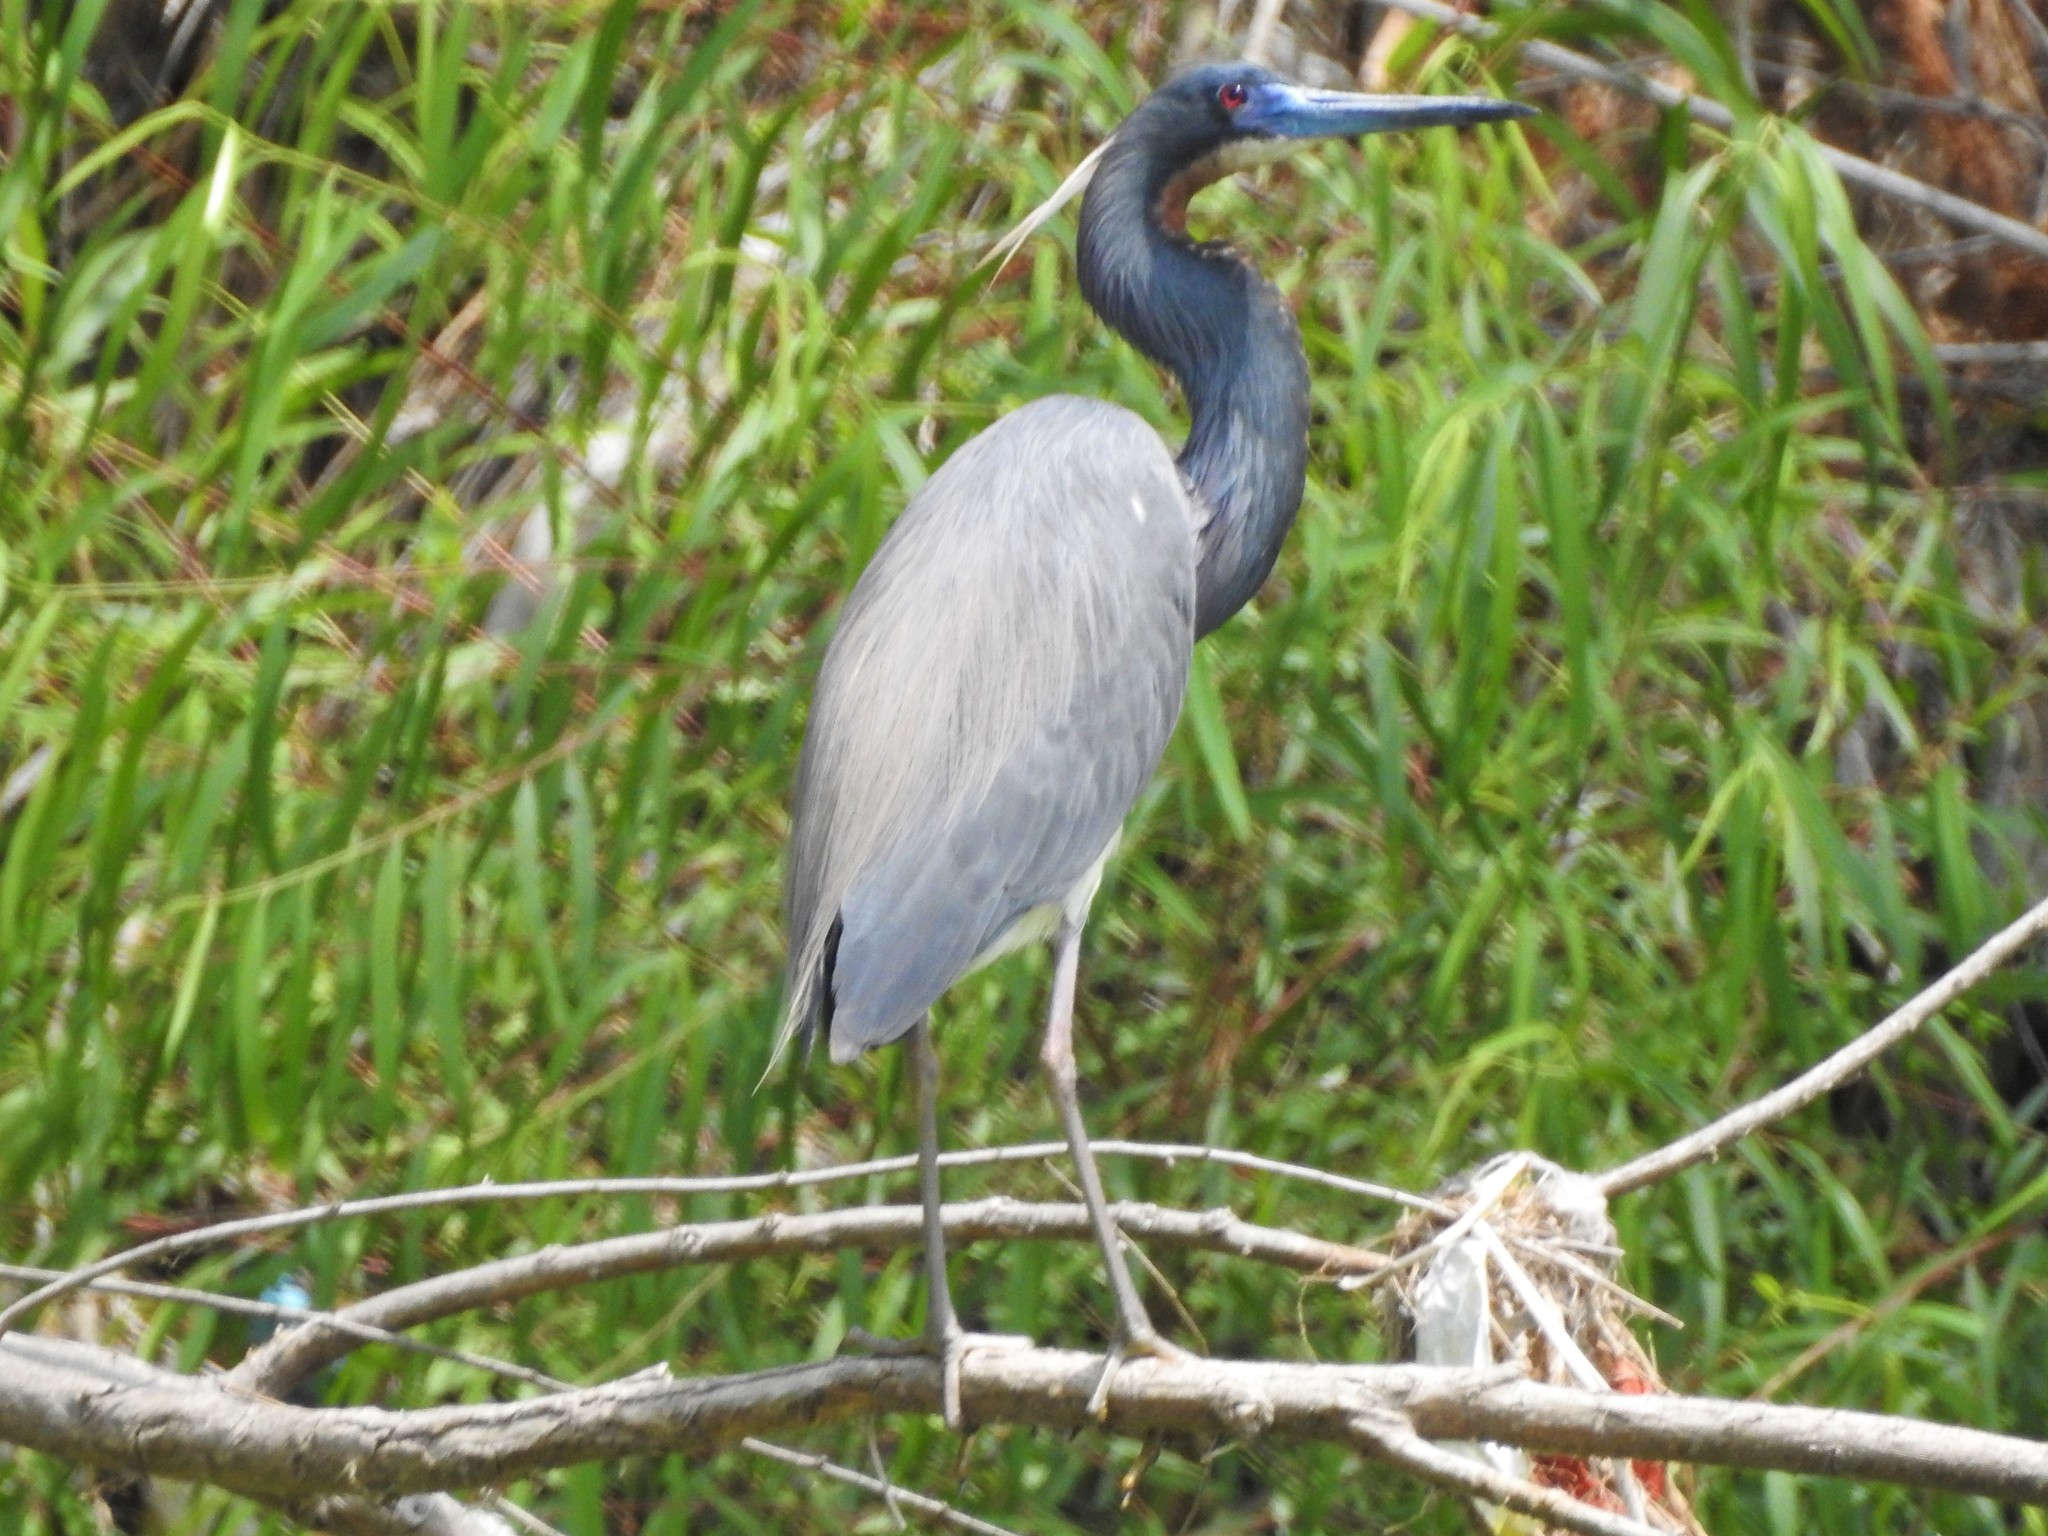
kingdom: Animalia
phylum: Chordata
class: Aves
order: Pelecaniformes
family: Ardeidae
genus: Egretta
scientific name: Egretta tricolor
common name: Tricolored heron
